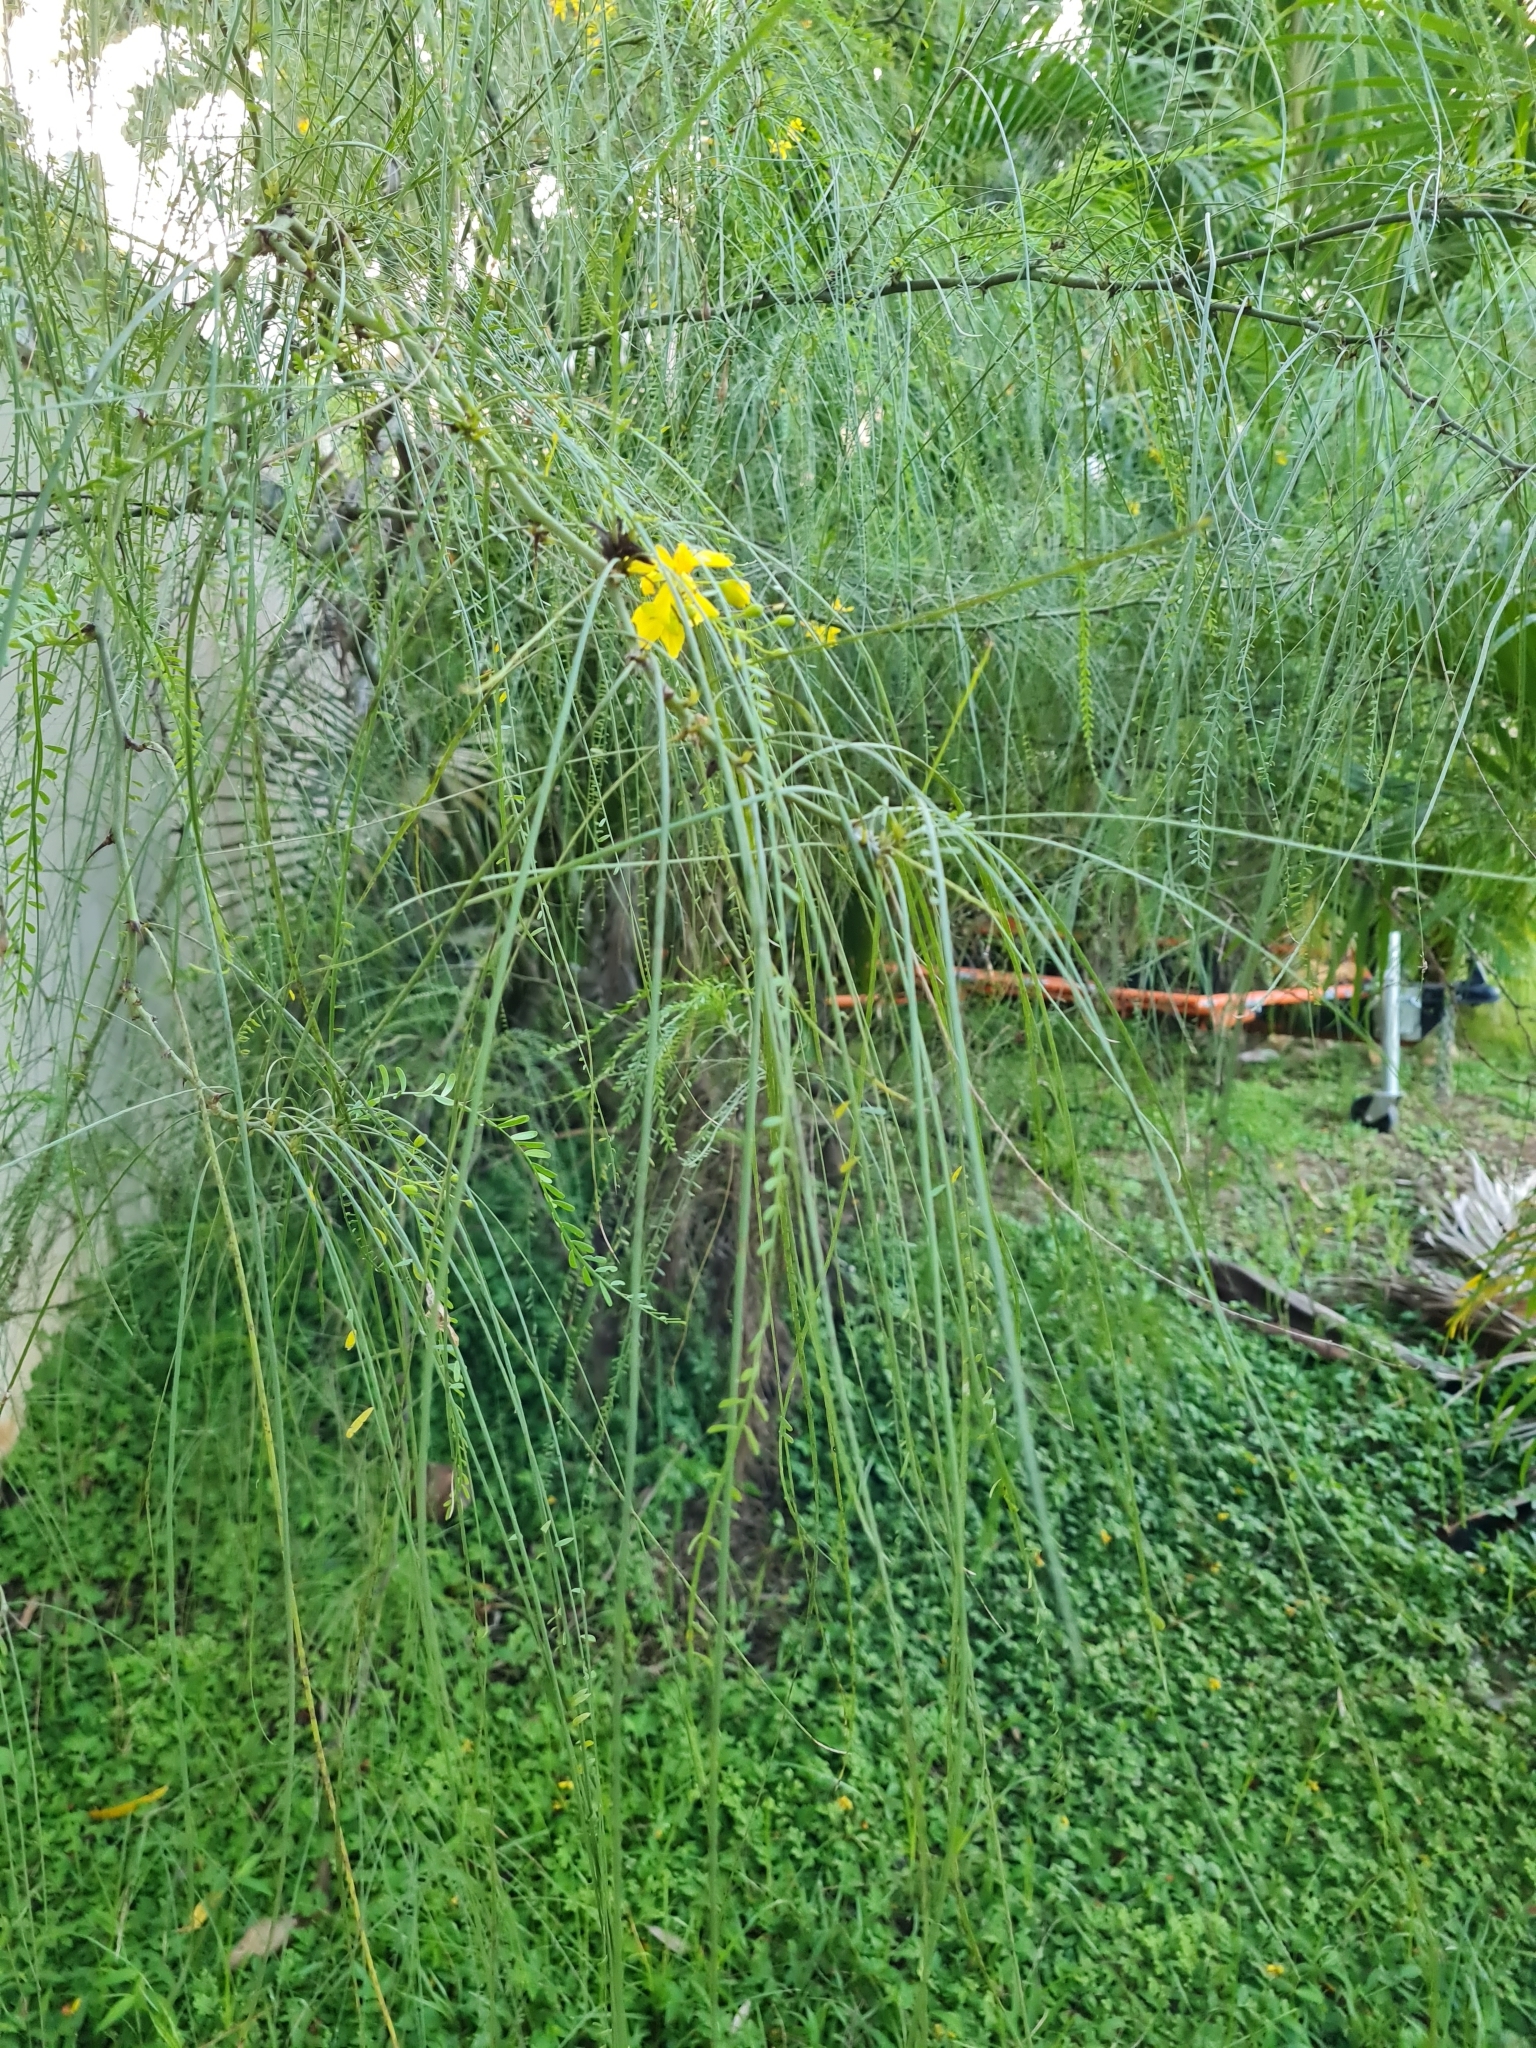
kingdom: Plantae
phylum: Tracheophyta
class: Magnoliopsida
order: Fabales
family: Fabaceae
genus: Parkinsonia
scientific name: Parkinsonia aculeata
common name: Jerusalem thorn
